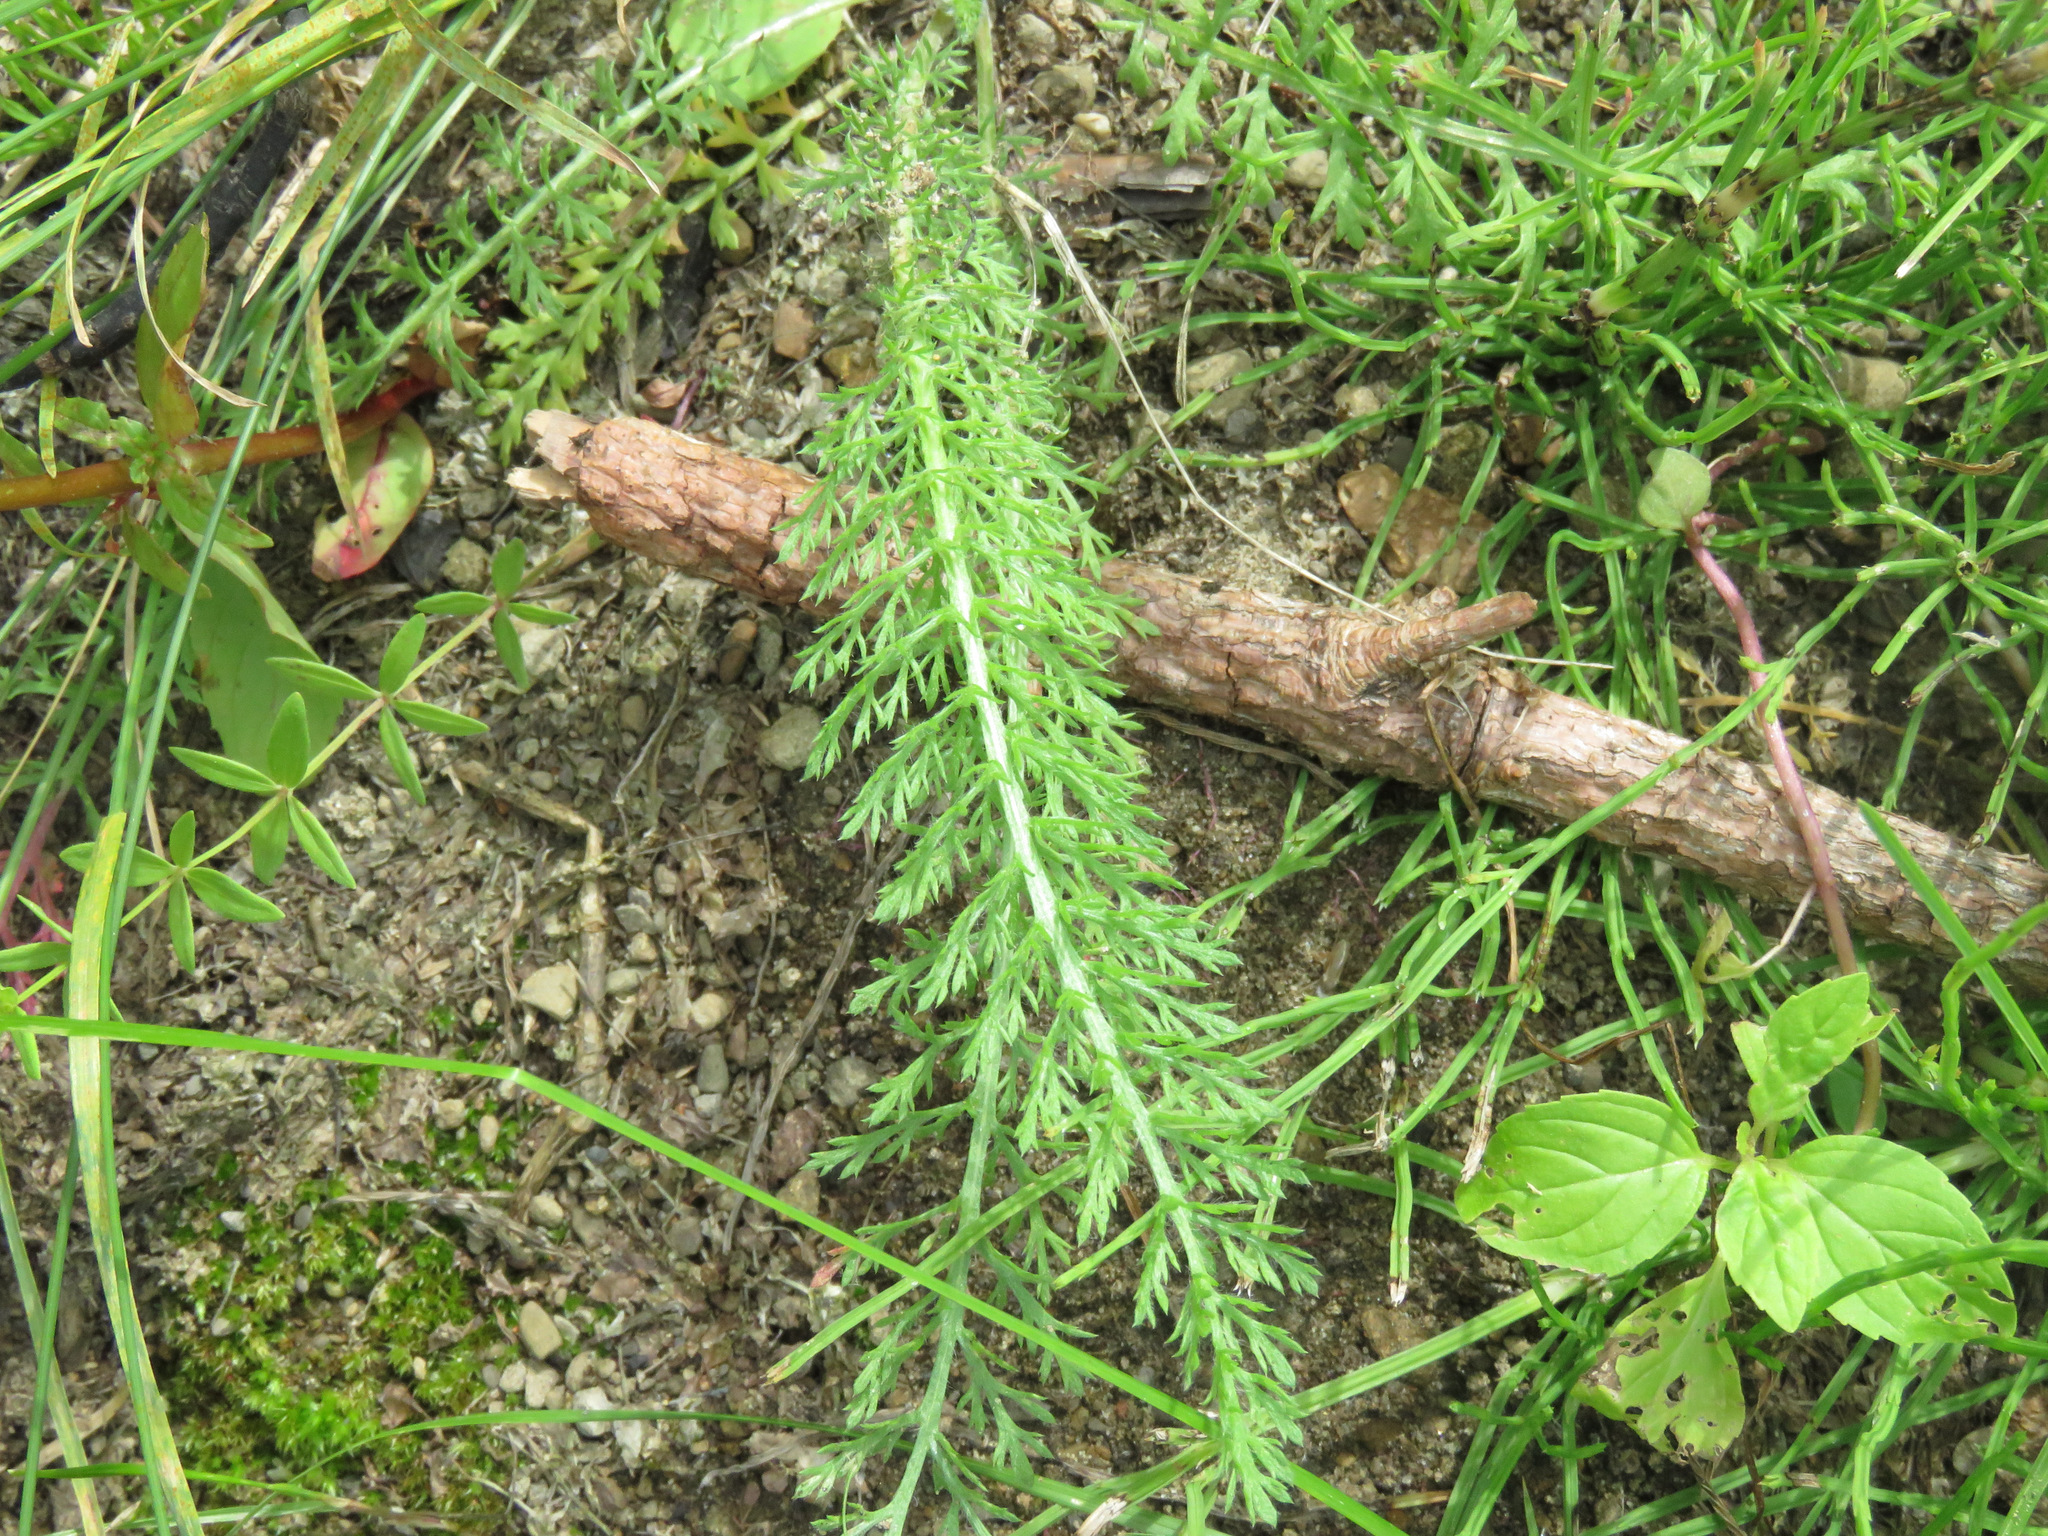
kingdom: Plantae
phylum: Tracheophyta
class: Magnoliopsida
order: Asterales
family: Asteraceae
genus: Achillea
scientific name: Achillea millefolium
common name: Yarrow
